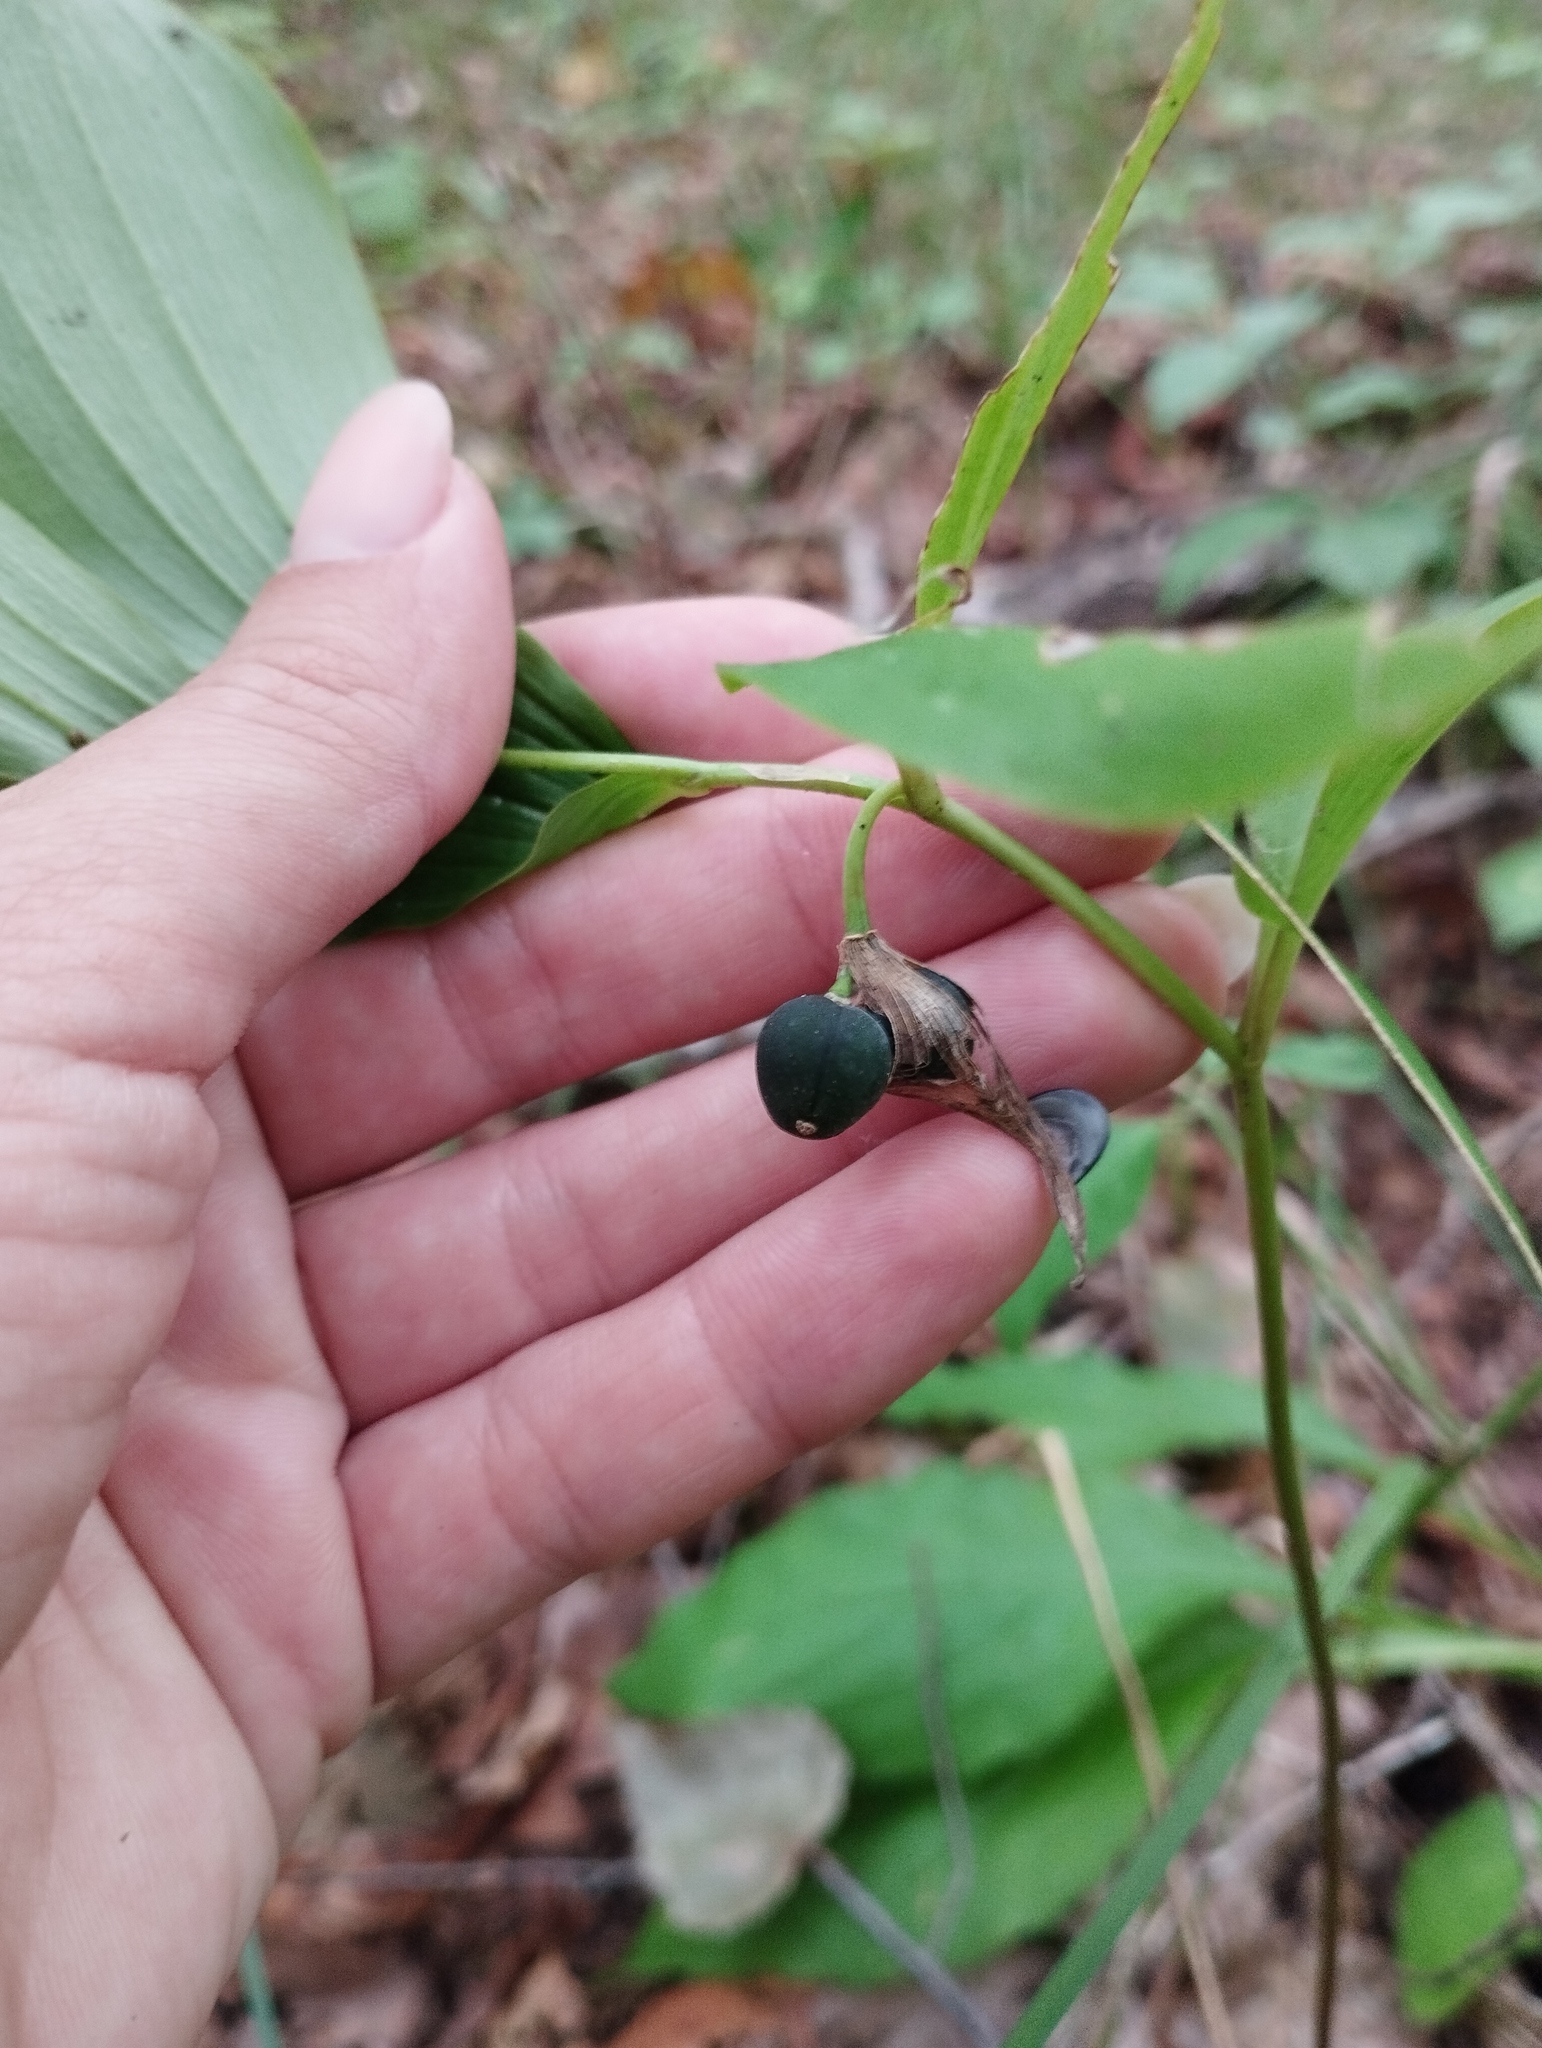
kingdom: Plantae
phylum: Tracheophyta
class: Liliopsida
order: Asparagales
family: Asparagaceae
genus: Polygonatum
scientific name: Polygonatum involucratum
